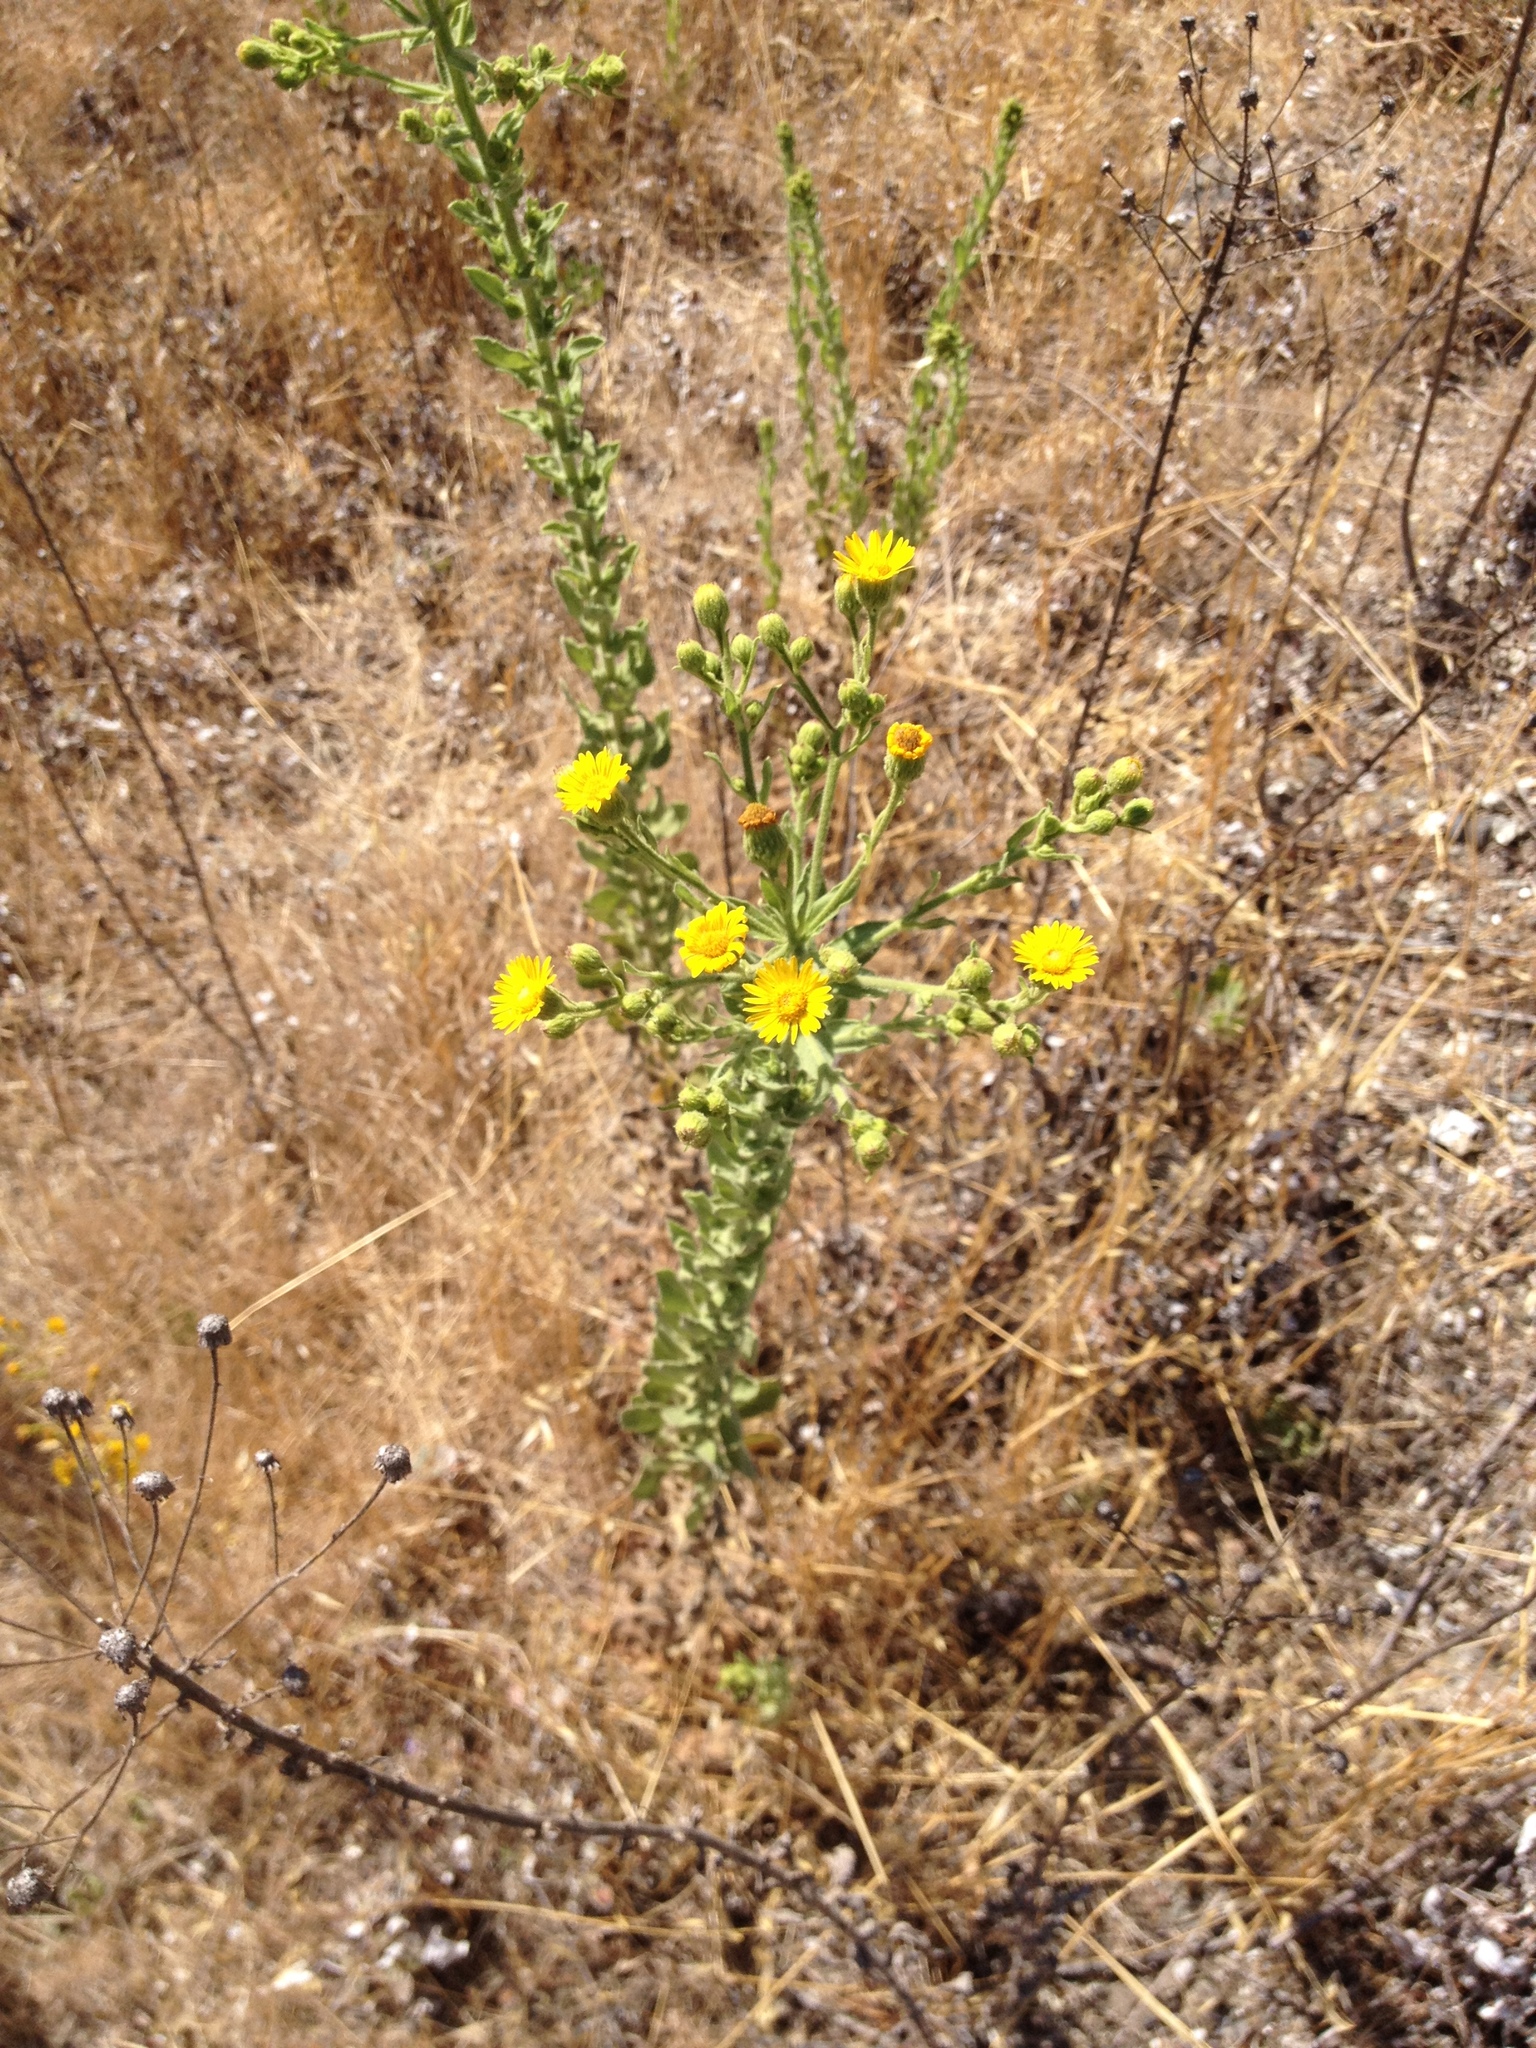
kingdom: Plantae
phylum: Tracheophyta
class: Magnoliopsida
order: Asterales
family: Asteraceae
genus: Heterotheca
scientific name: Heterotheca grandiflora
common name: Telegraphweed
